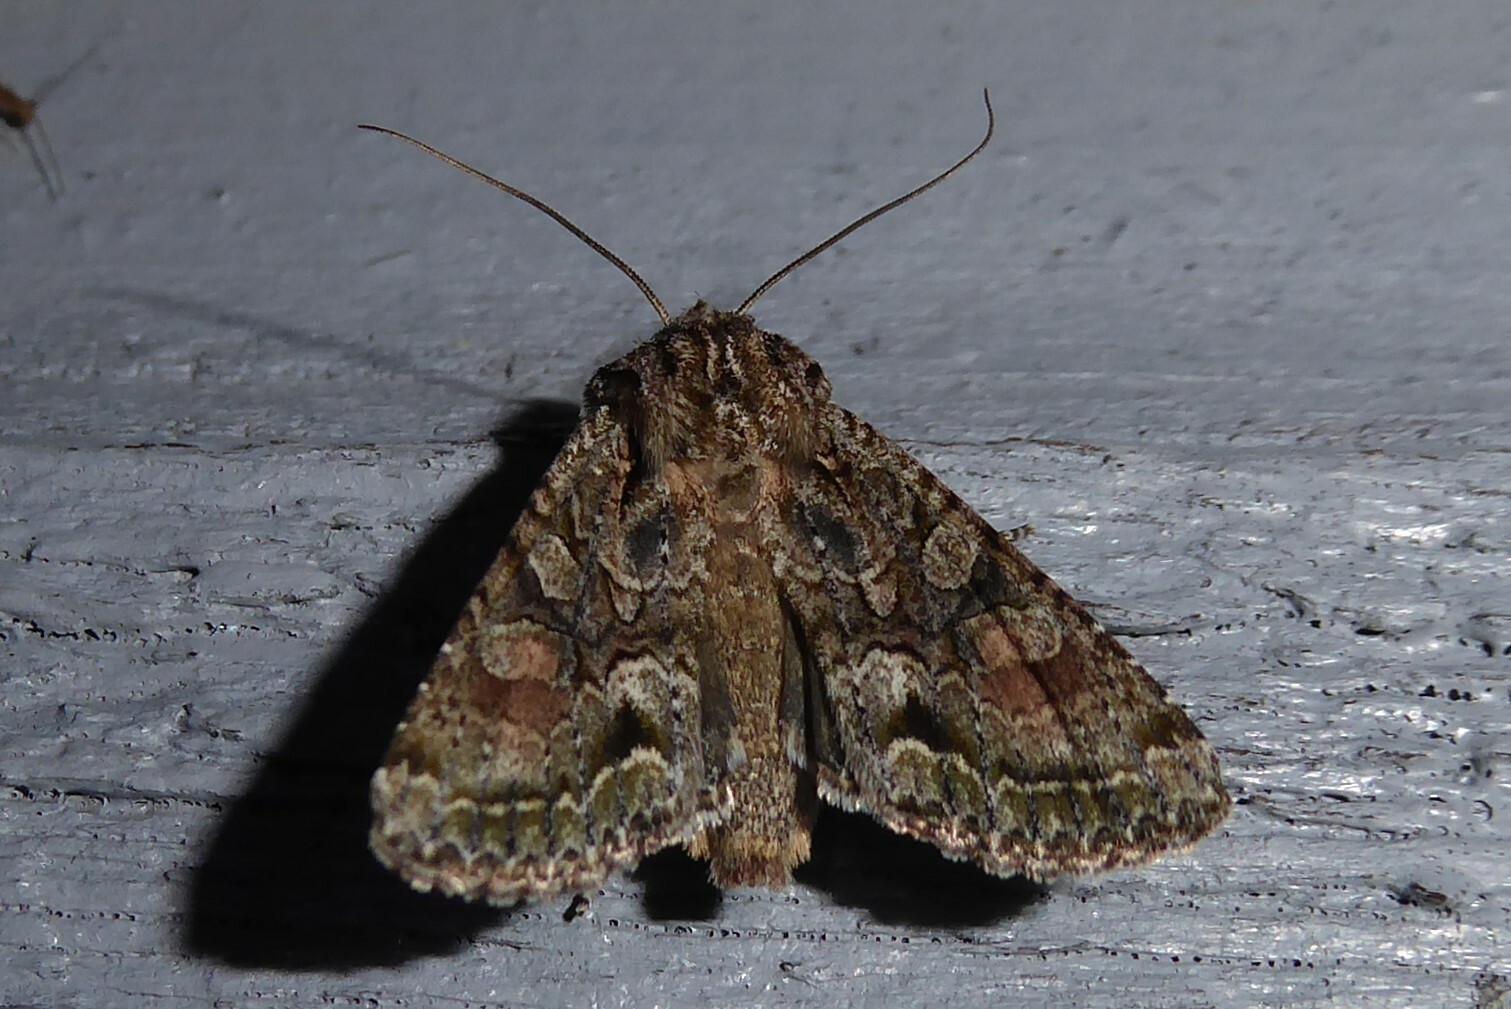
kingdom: Animalia
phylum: Arthropoda
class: Insecta
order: Lepidoptera
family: Noctuidae
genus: Ichneutica
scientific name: Ichneutica mutans
